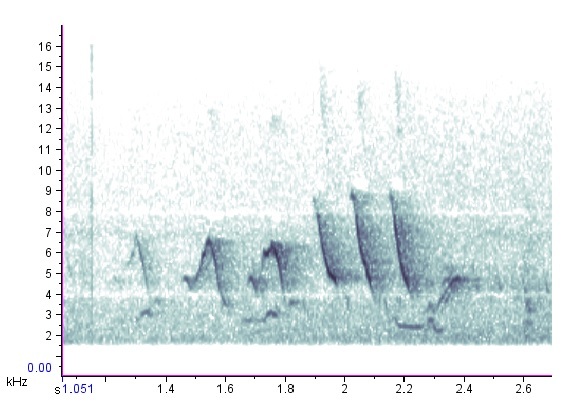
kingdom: Animalia
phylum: Chordata
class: Aves
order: Passeriformes
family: Parulidae
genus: Setophaga
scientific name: Setophaga petechia
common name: Yellow warbler
